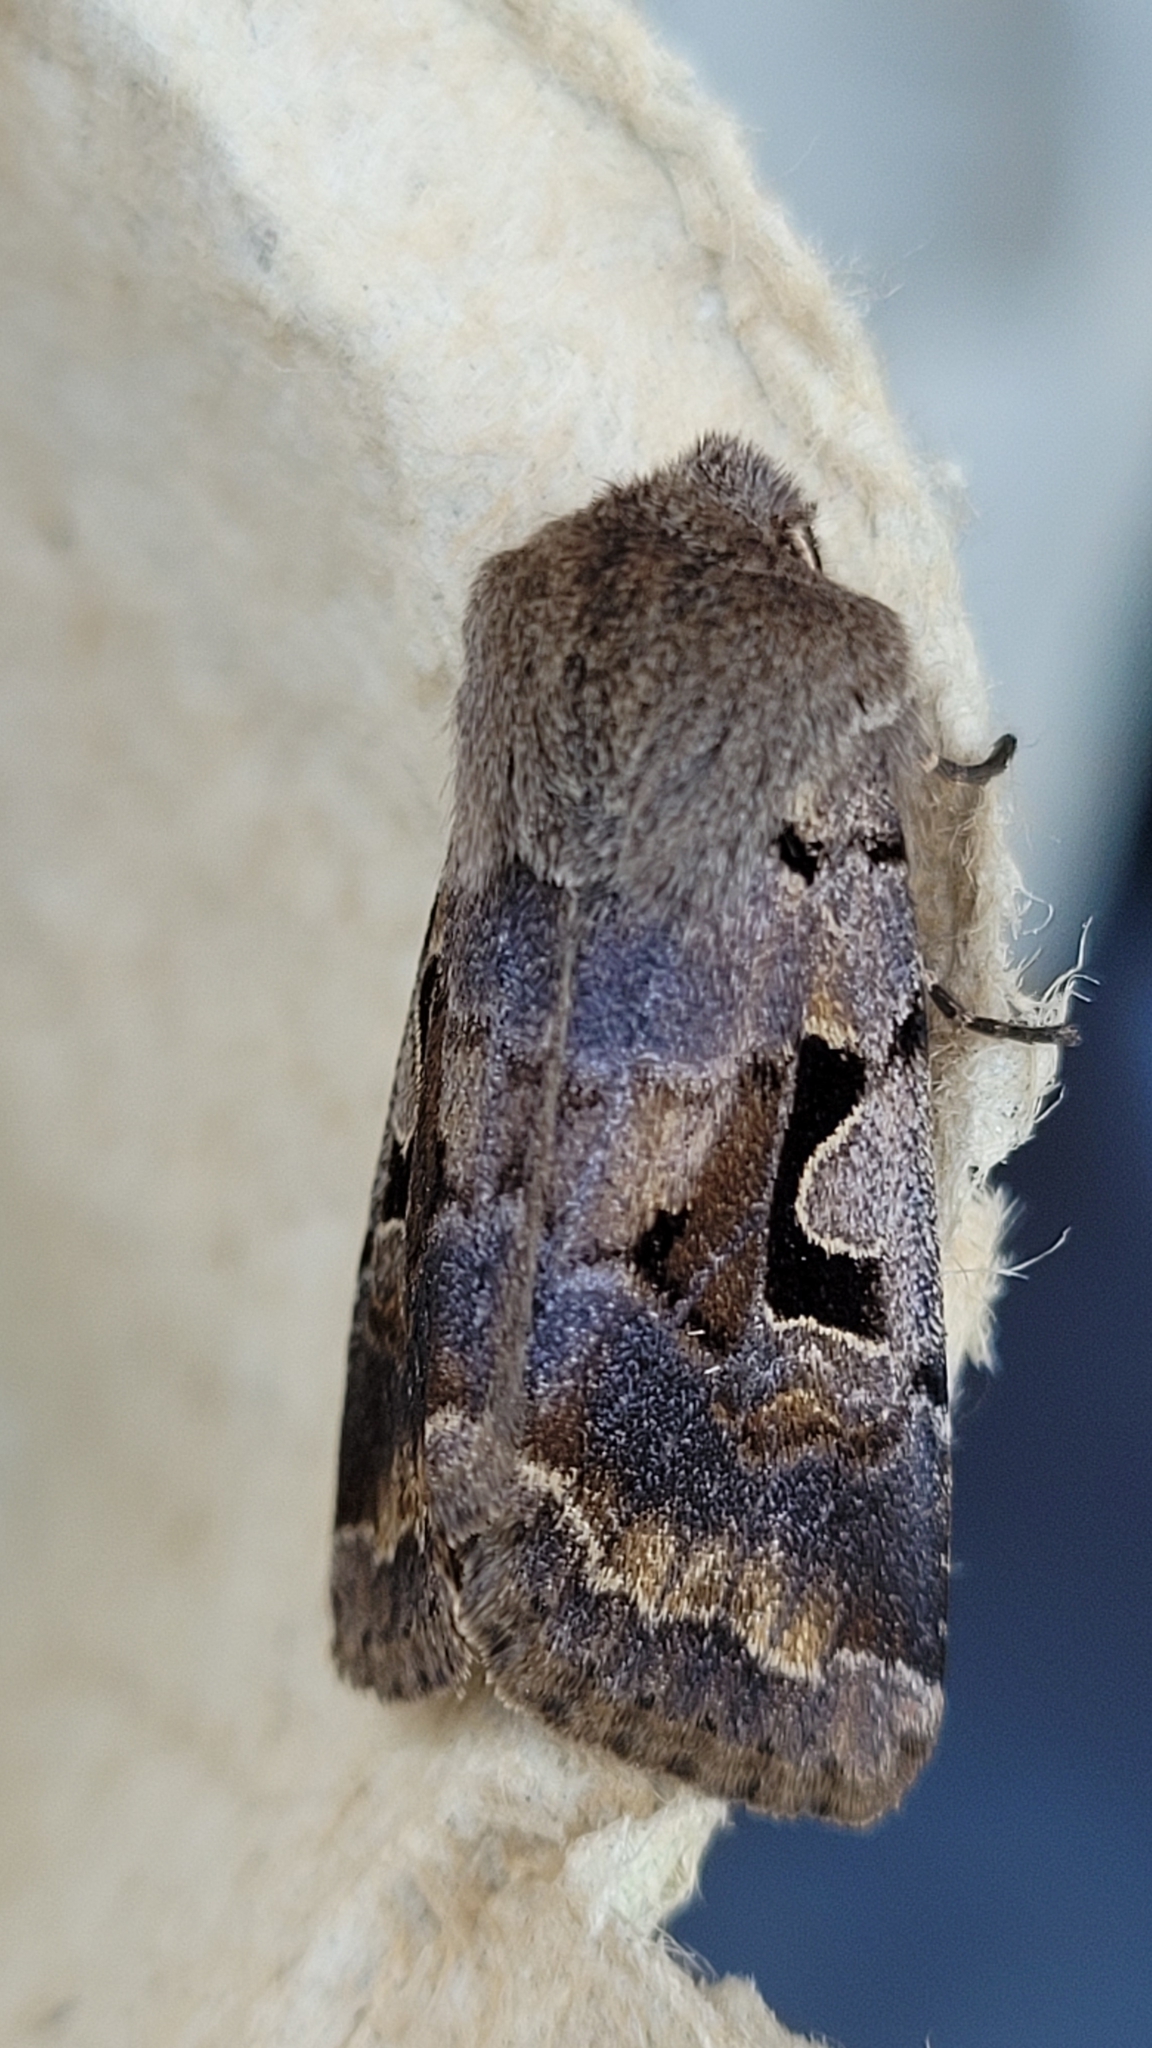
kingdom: Animalia
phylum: Arthropoda
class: Insecta
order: Lepidoptera
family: Noctuidae
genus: Orthosia
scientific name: Orthosia gothica
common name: Hebrew character
